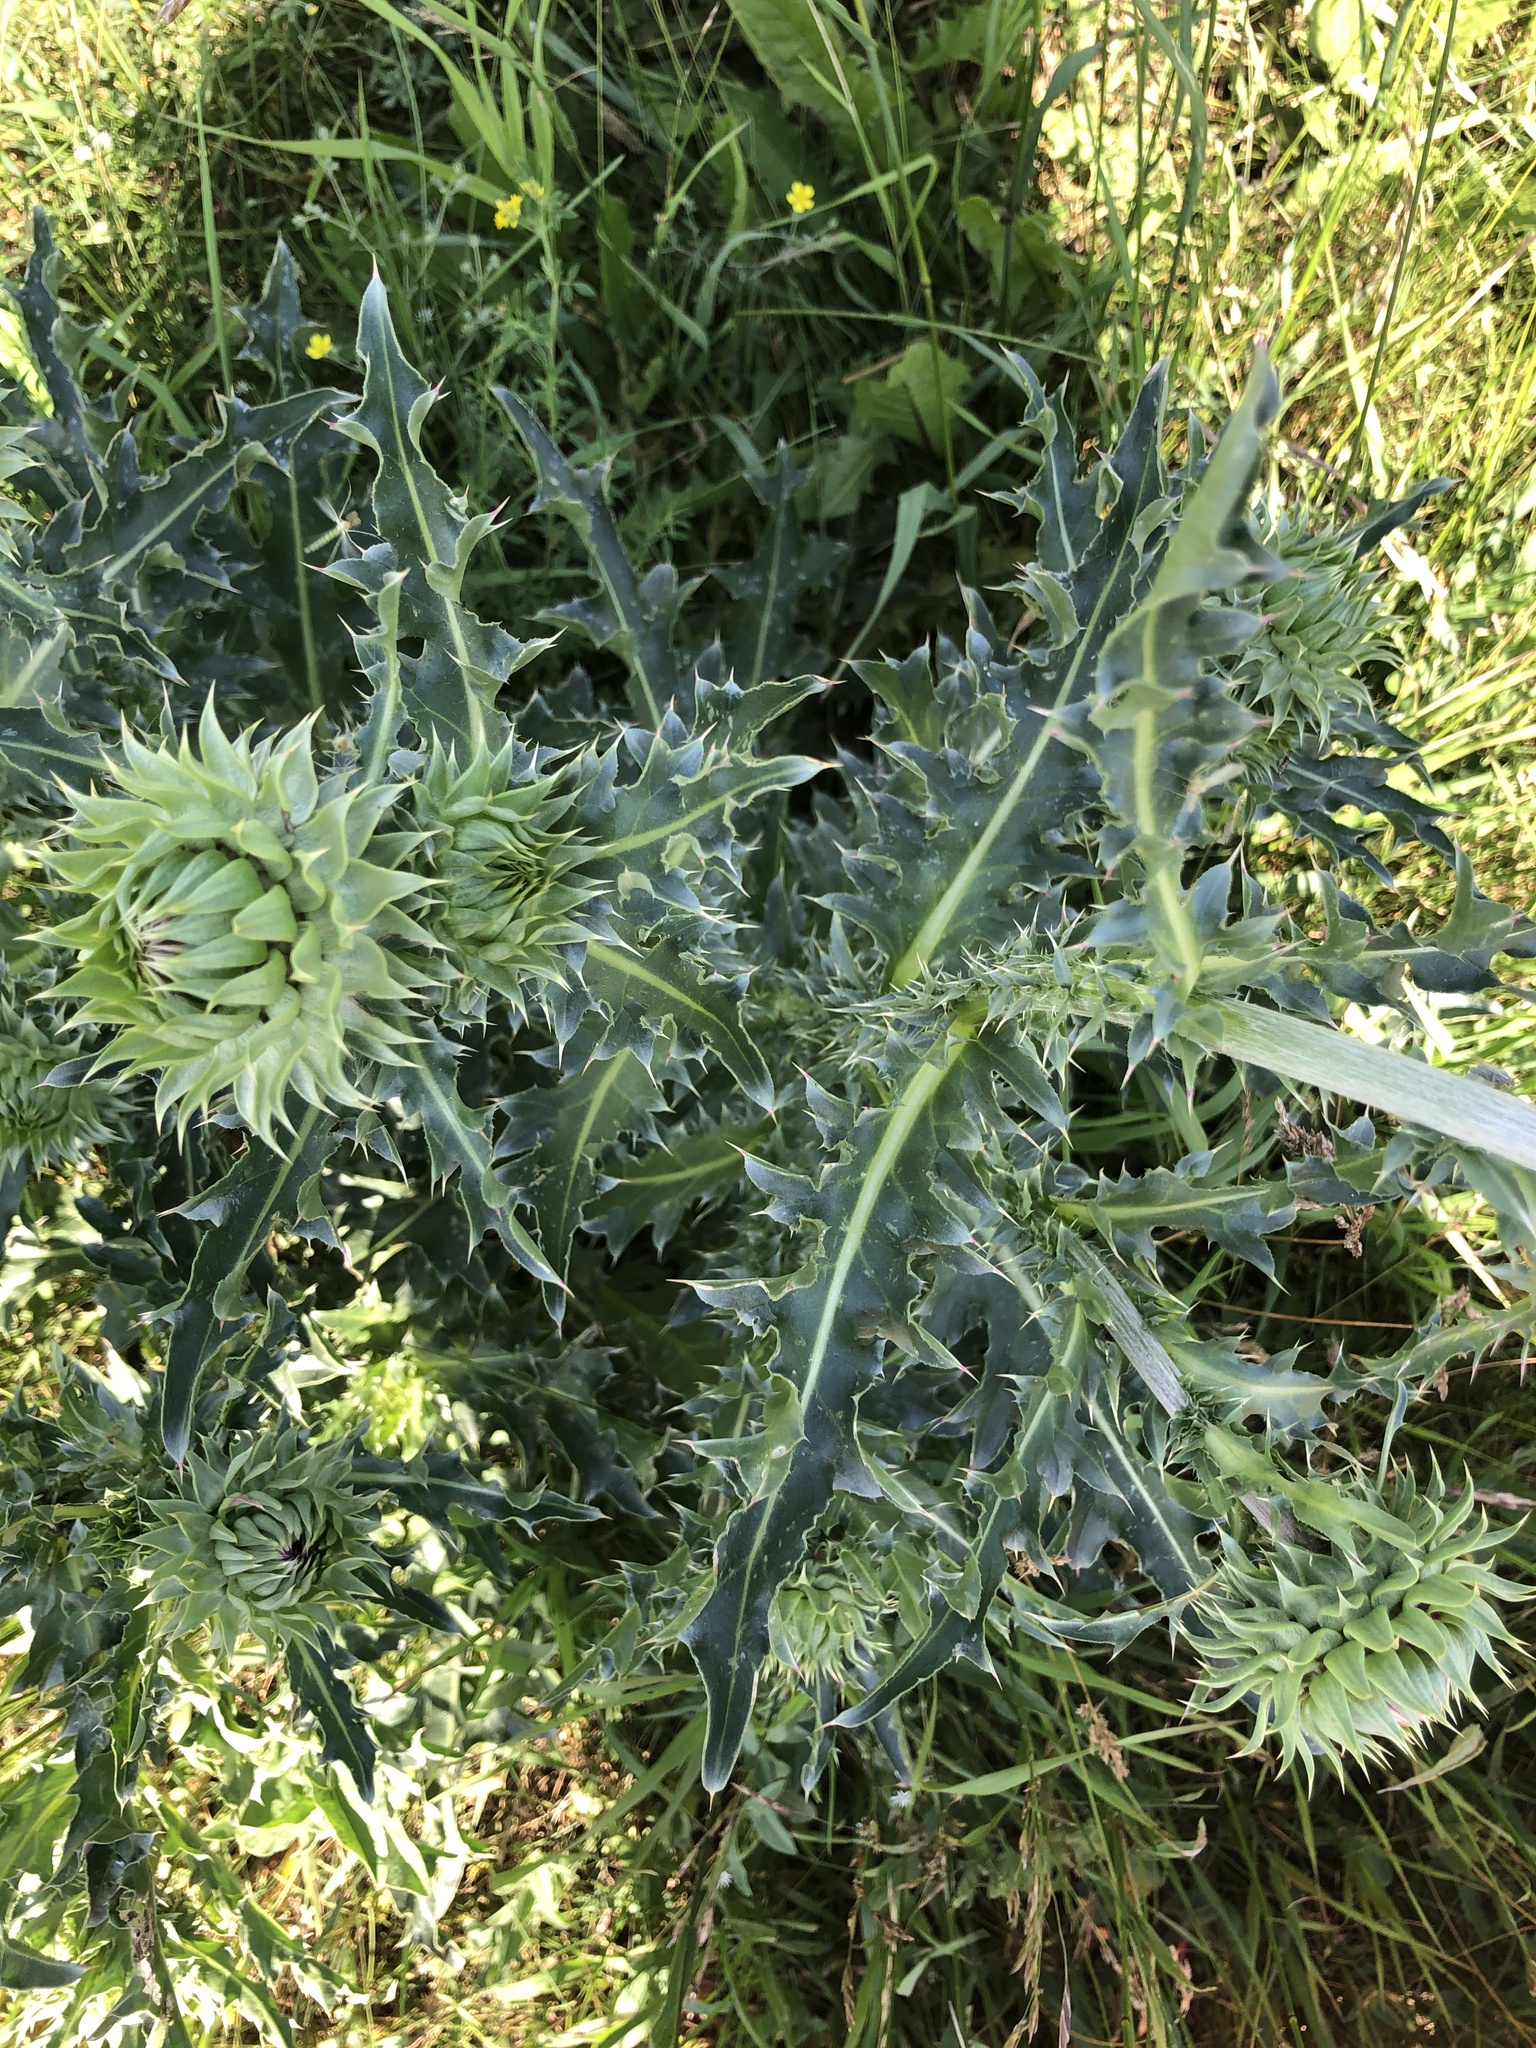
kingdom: Plantae
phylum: Tracheophyta
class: Magnoliopsida
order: Asterales
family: Asteraceae
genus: Carduus
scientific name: Carduus nutans
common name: Musk thistle
